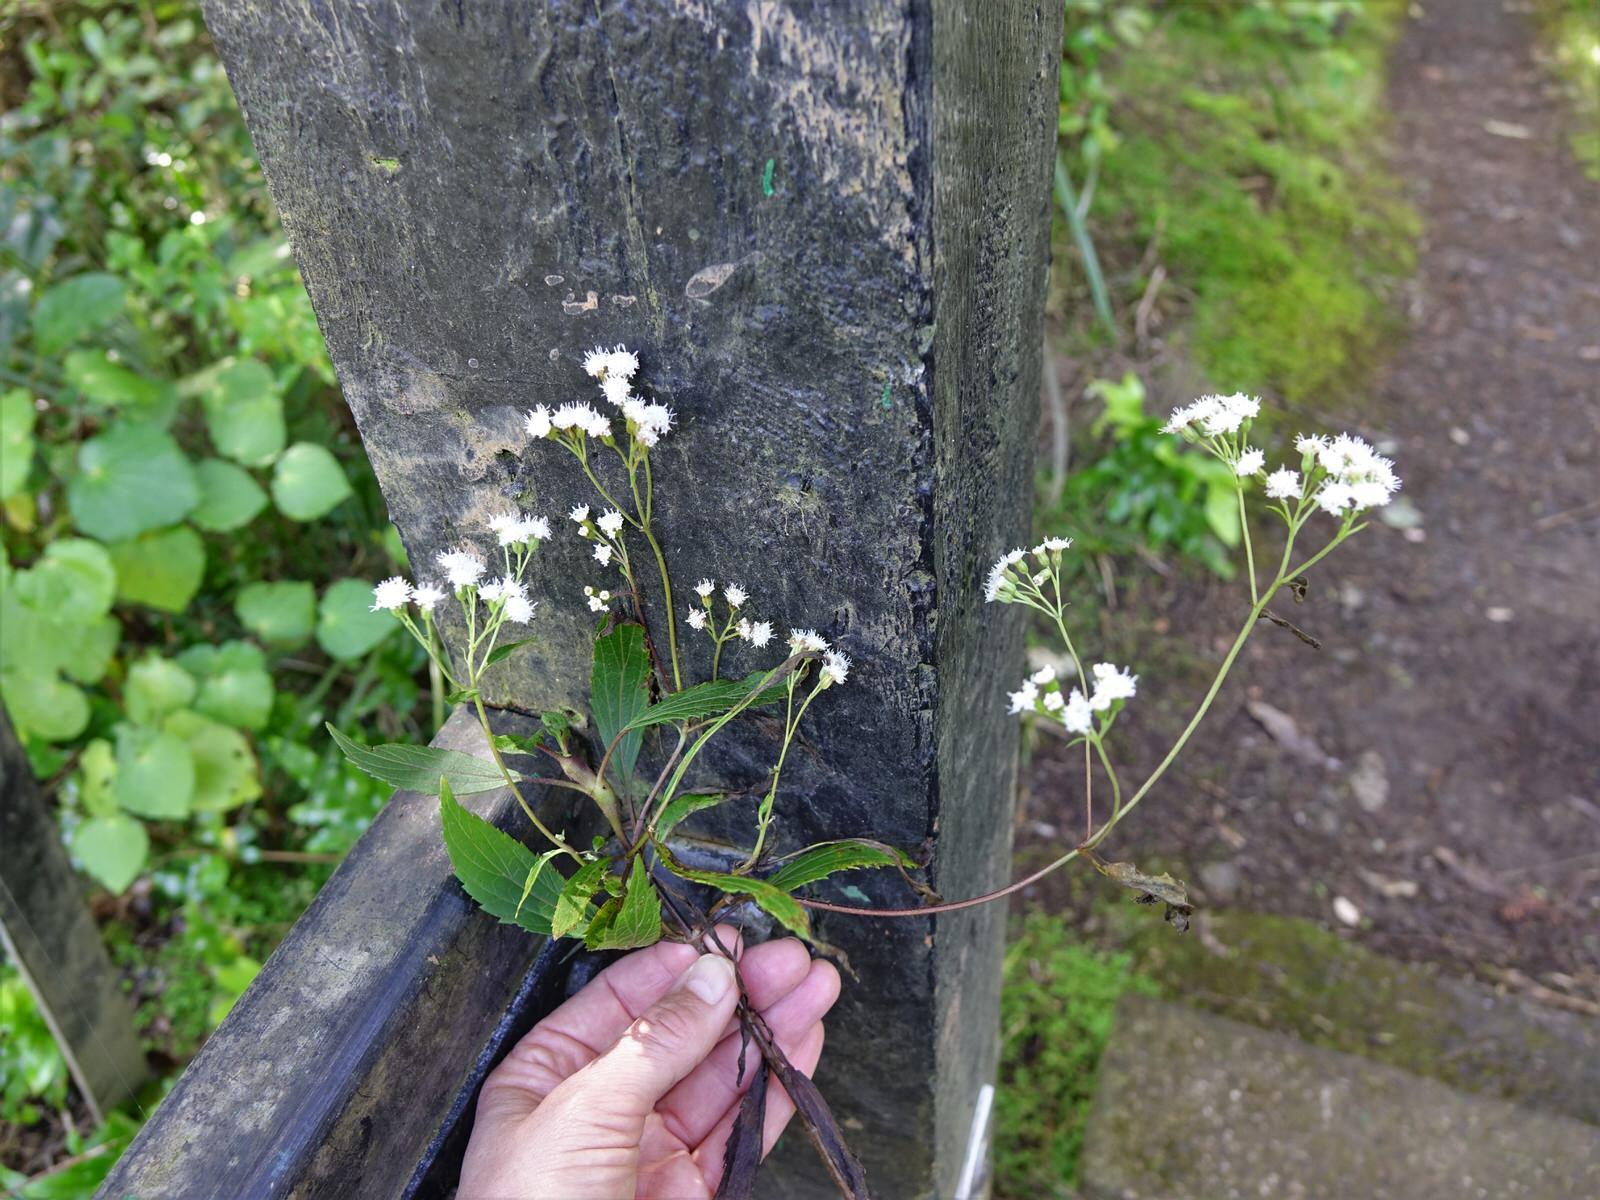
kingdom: Animalia
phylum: Arthropoda
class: Insecta
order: Diptera
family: Tephritidae
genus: Procecidochares
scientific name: Procecidochares alani
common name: Fruit fly
